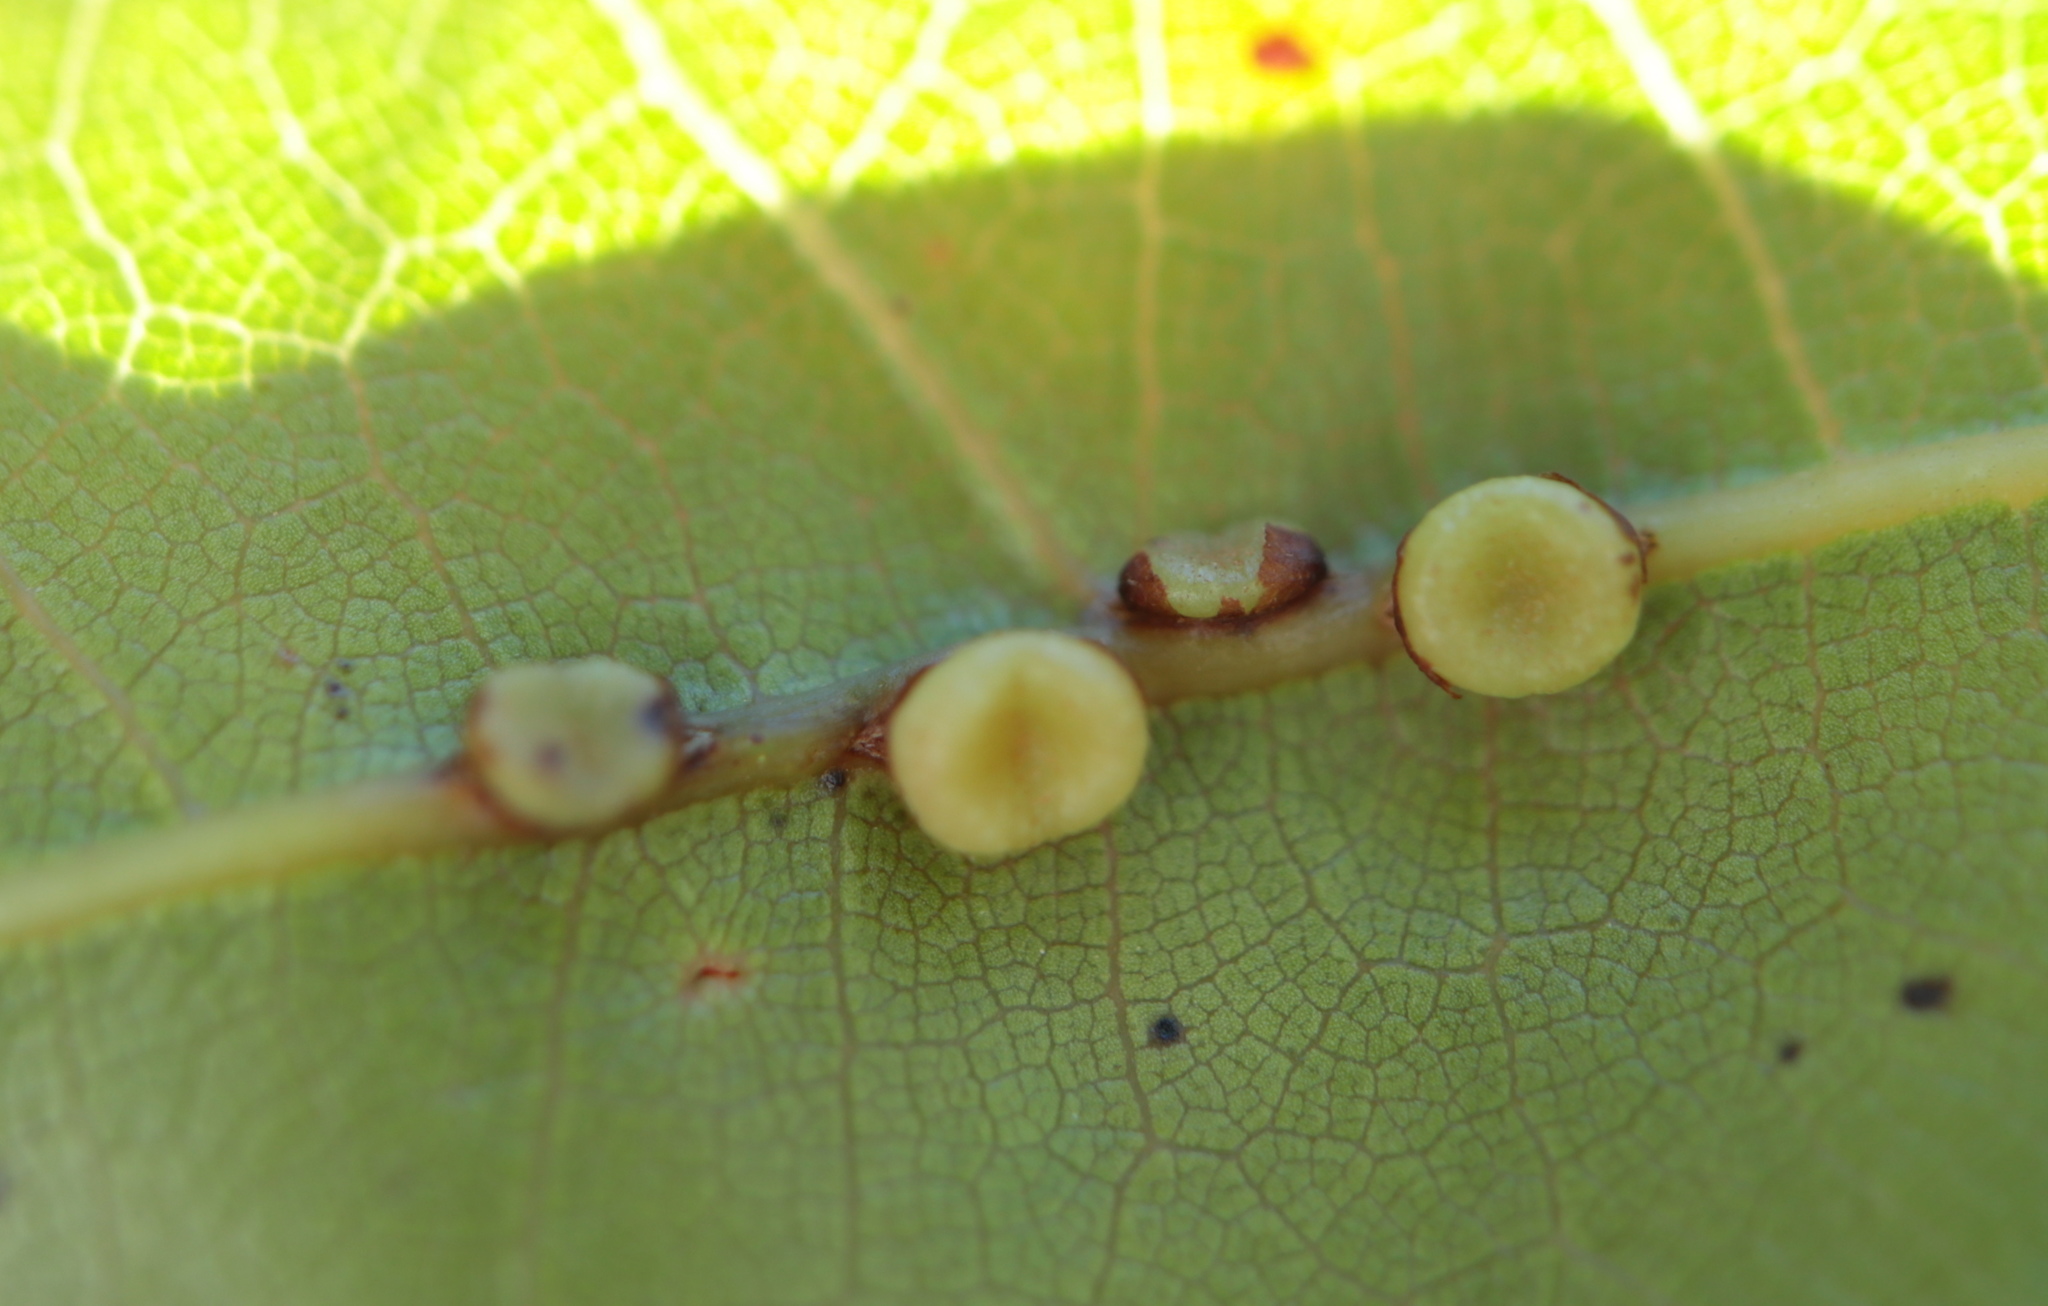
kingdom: Animalia
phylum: Arthropoda
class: Insecta
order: Hymenoptera
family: Cynipidae
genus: Kokkocynips
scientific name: Kokkocynips rileyi
